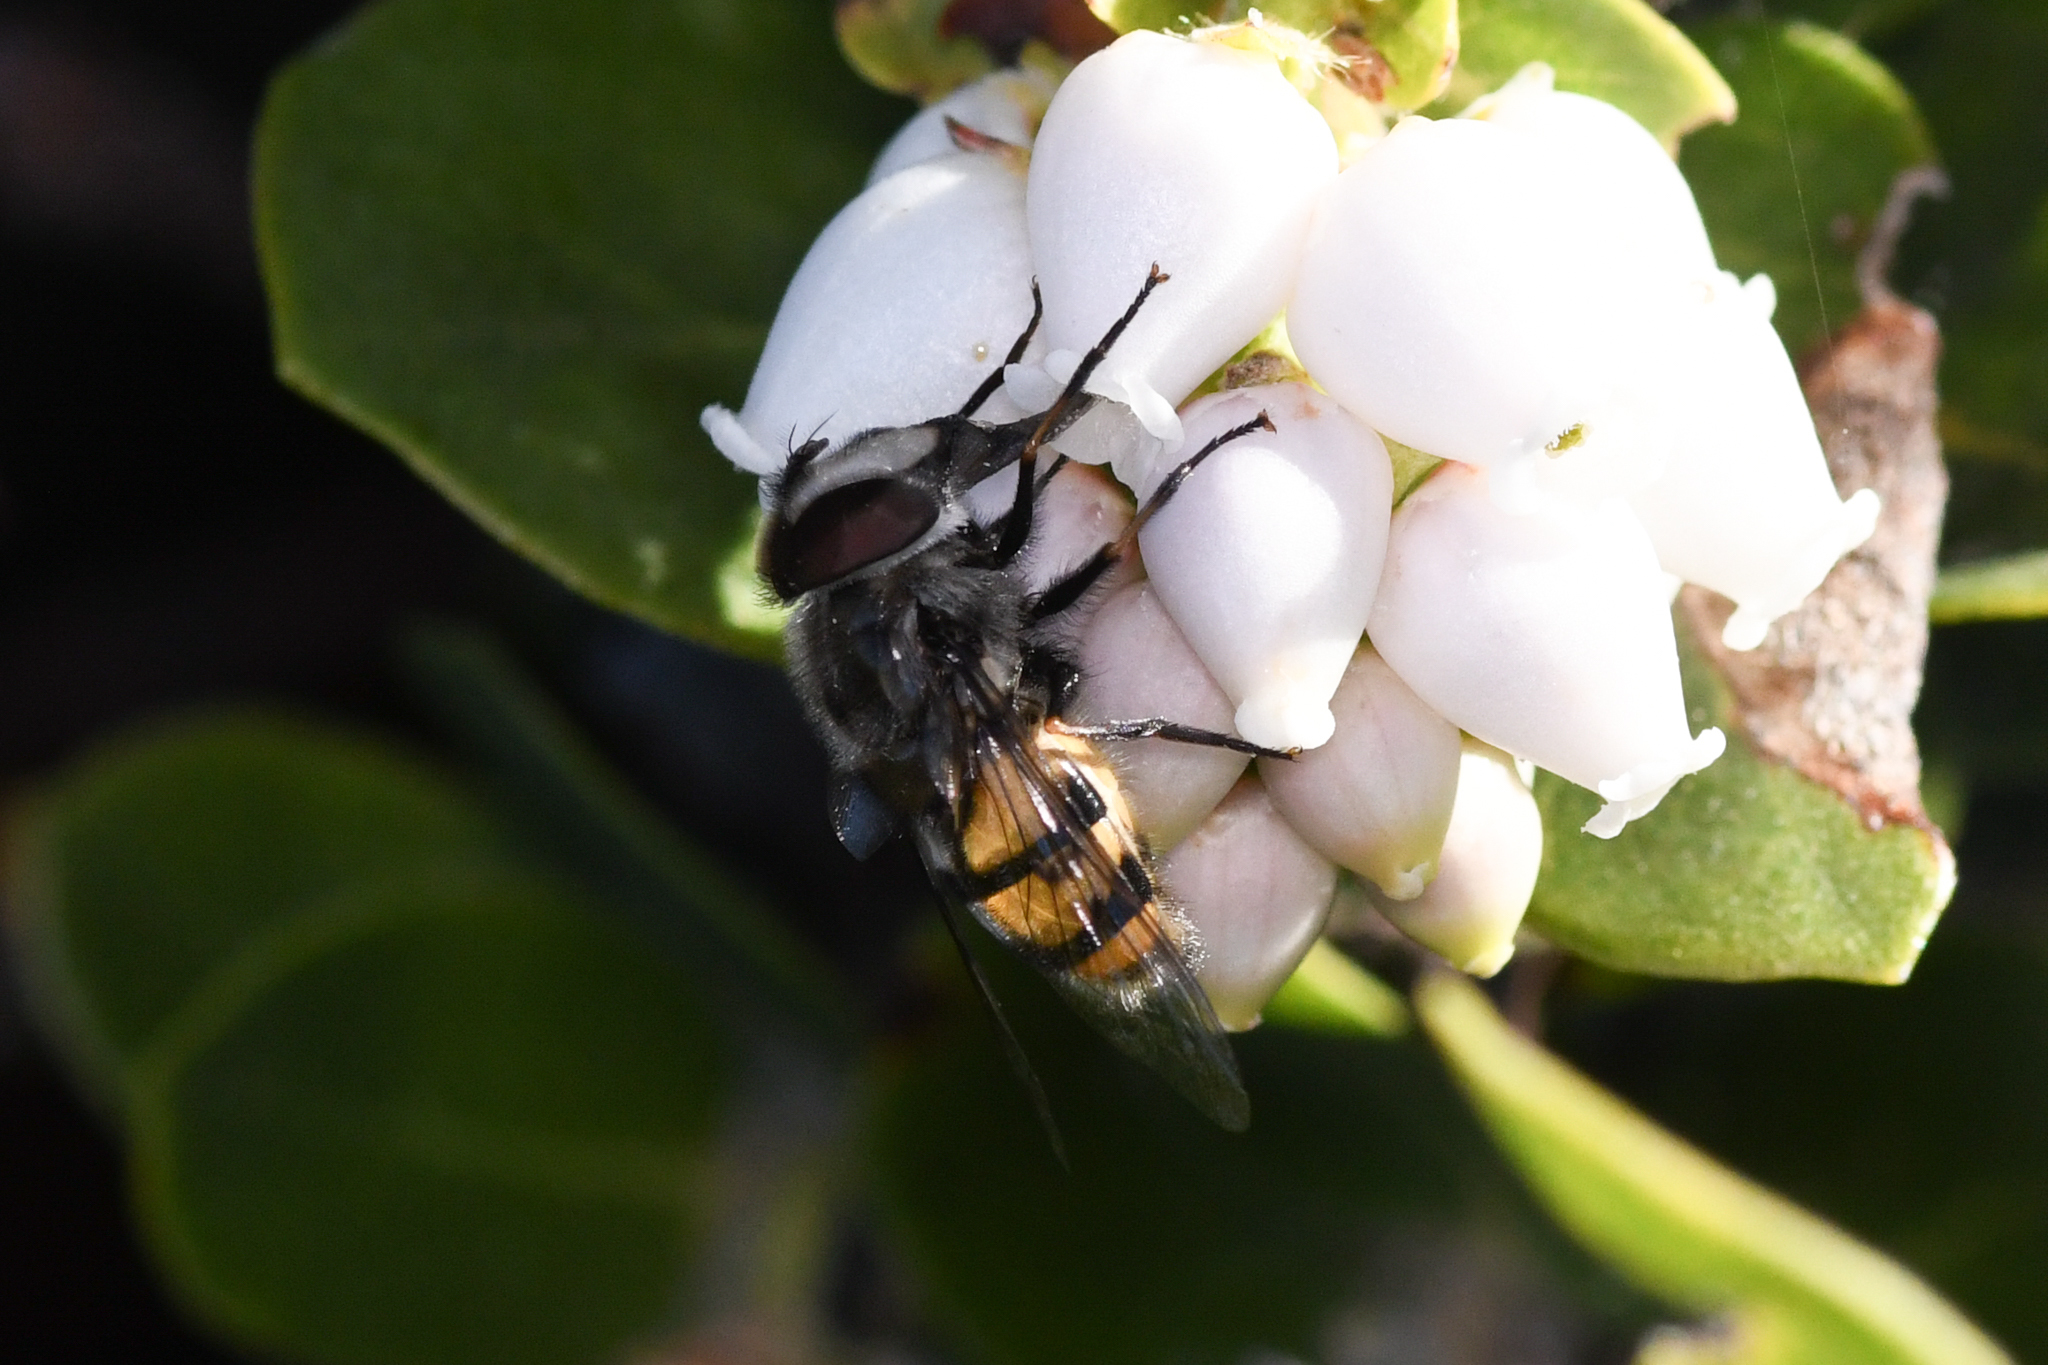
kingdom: Animalia
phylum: Arthropoda
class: Insecta
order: Diptera
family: Syrphidae
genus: Copestylum
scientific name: Copestylum avidum
